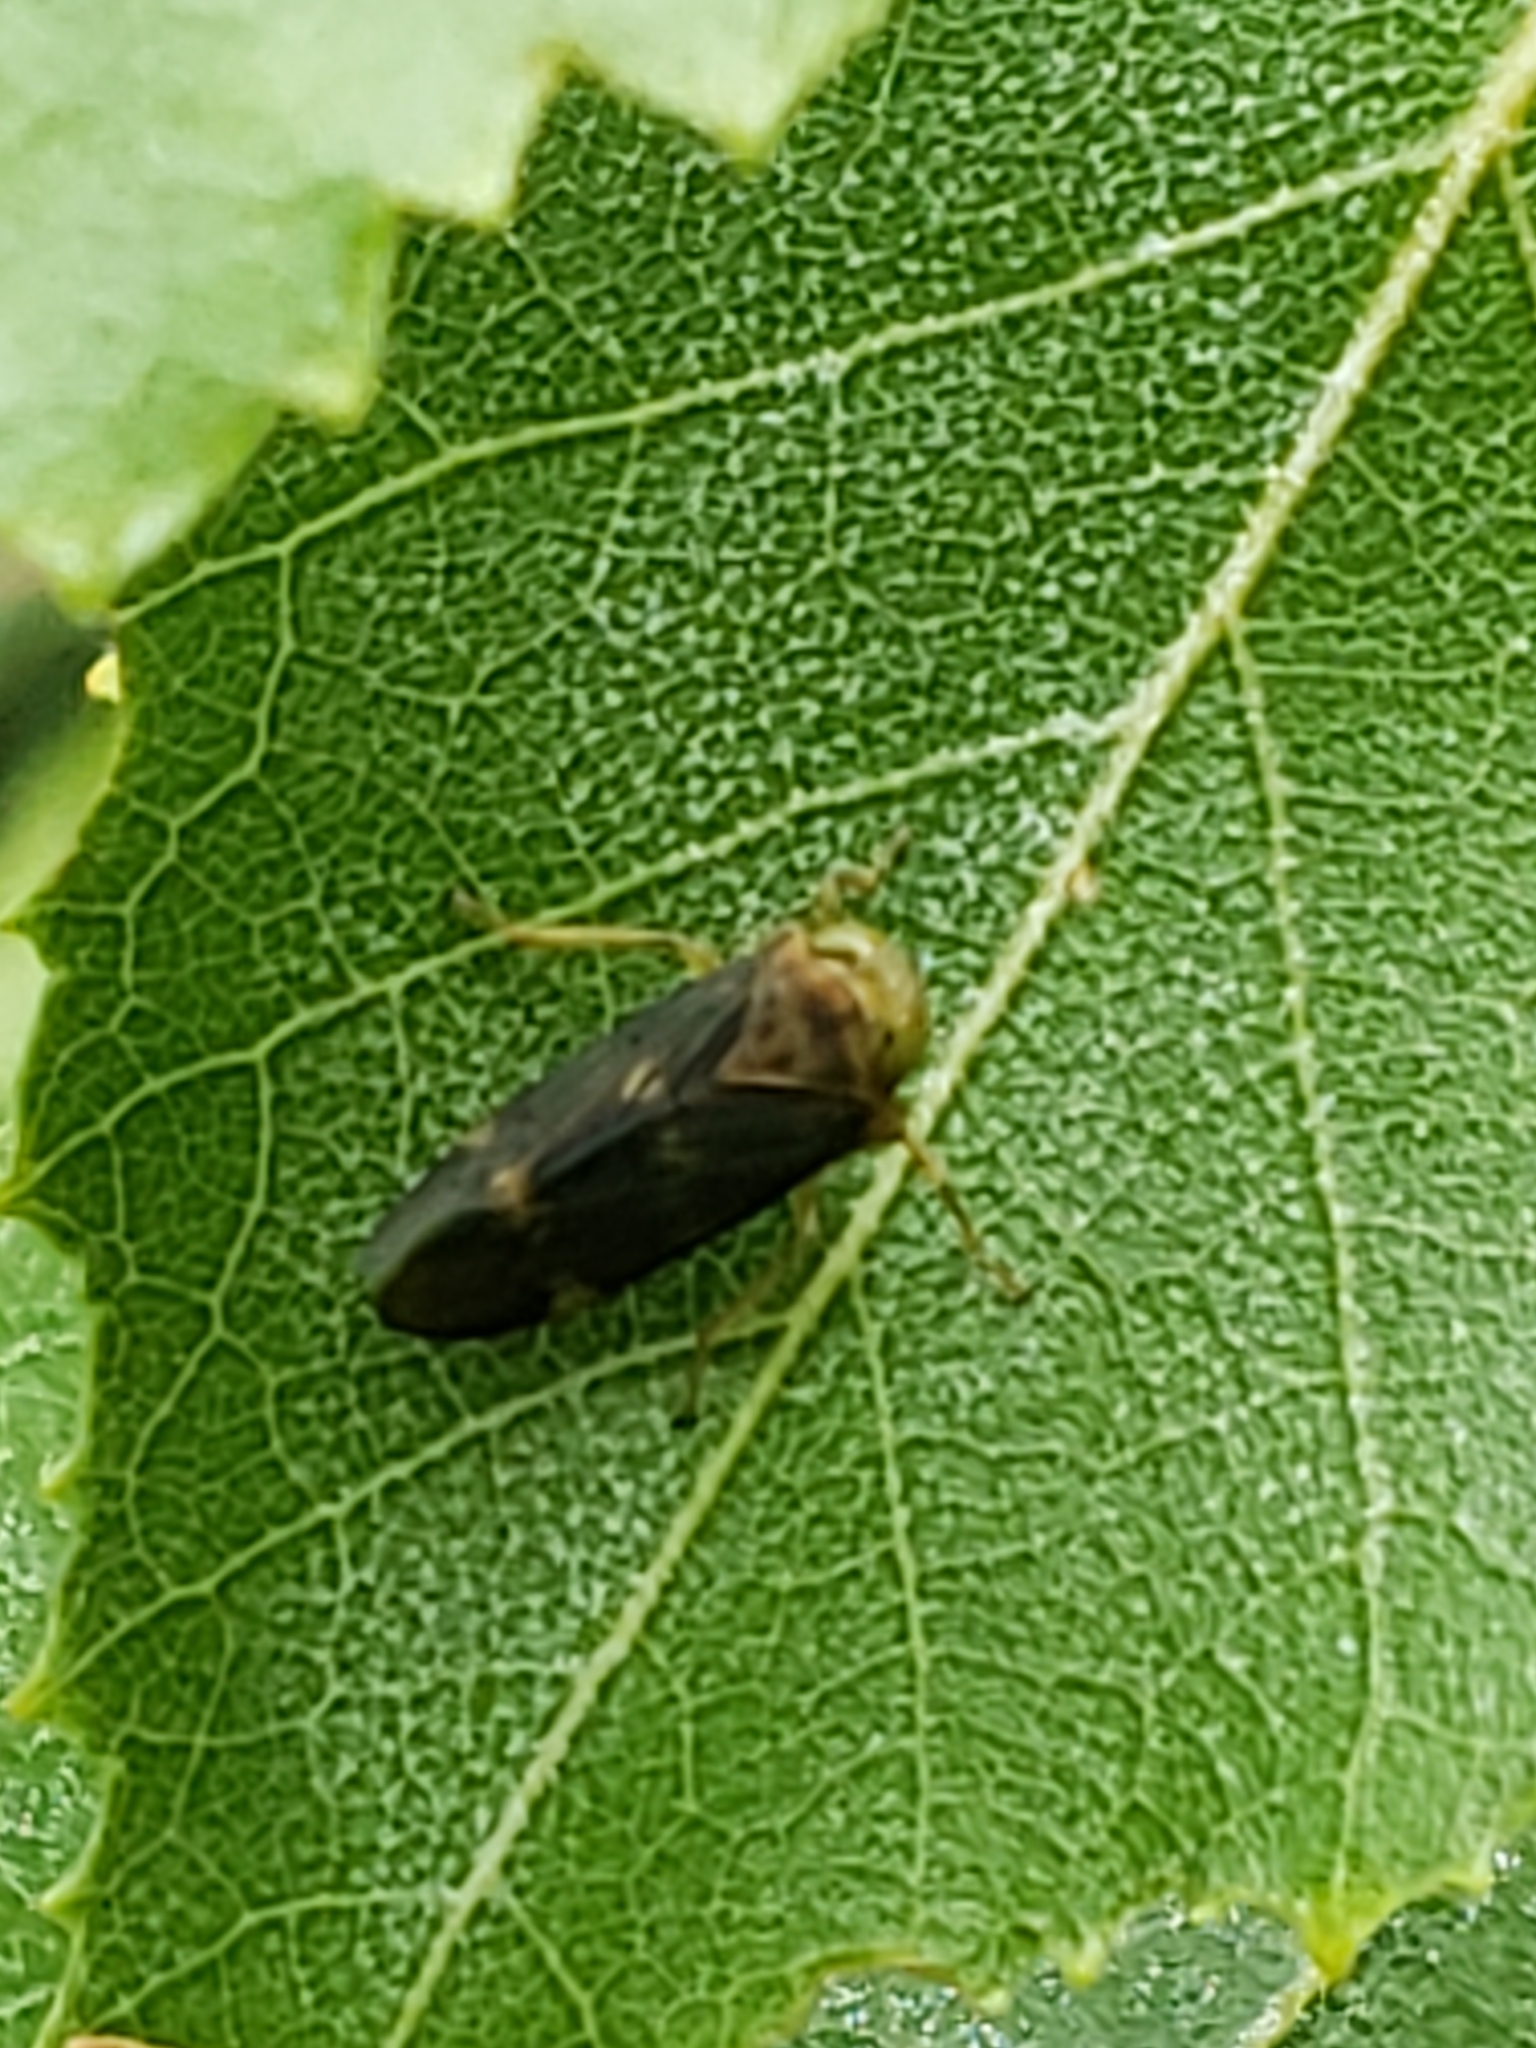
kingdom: Animalia
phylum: Arthropoda
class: Insecta
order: Hemiptera
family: Cicadellidae
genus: Jikradia
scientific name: Jikradia olitoria
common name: Coppery leafhopper
